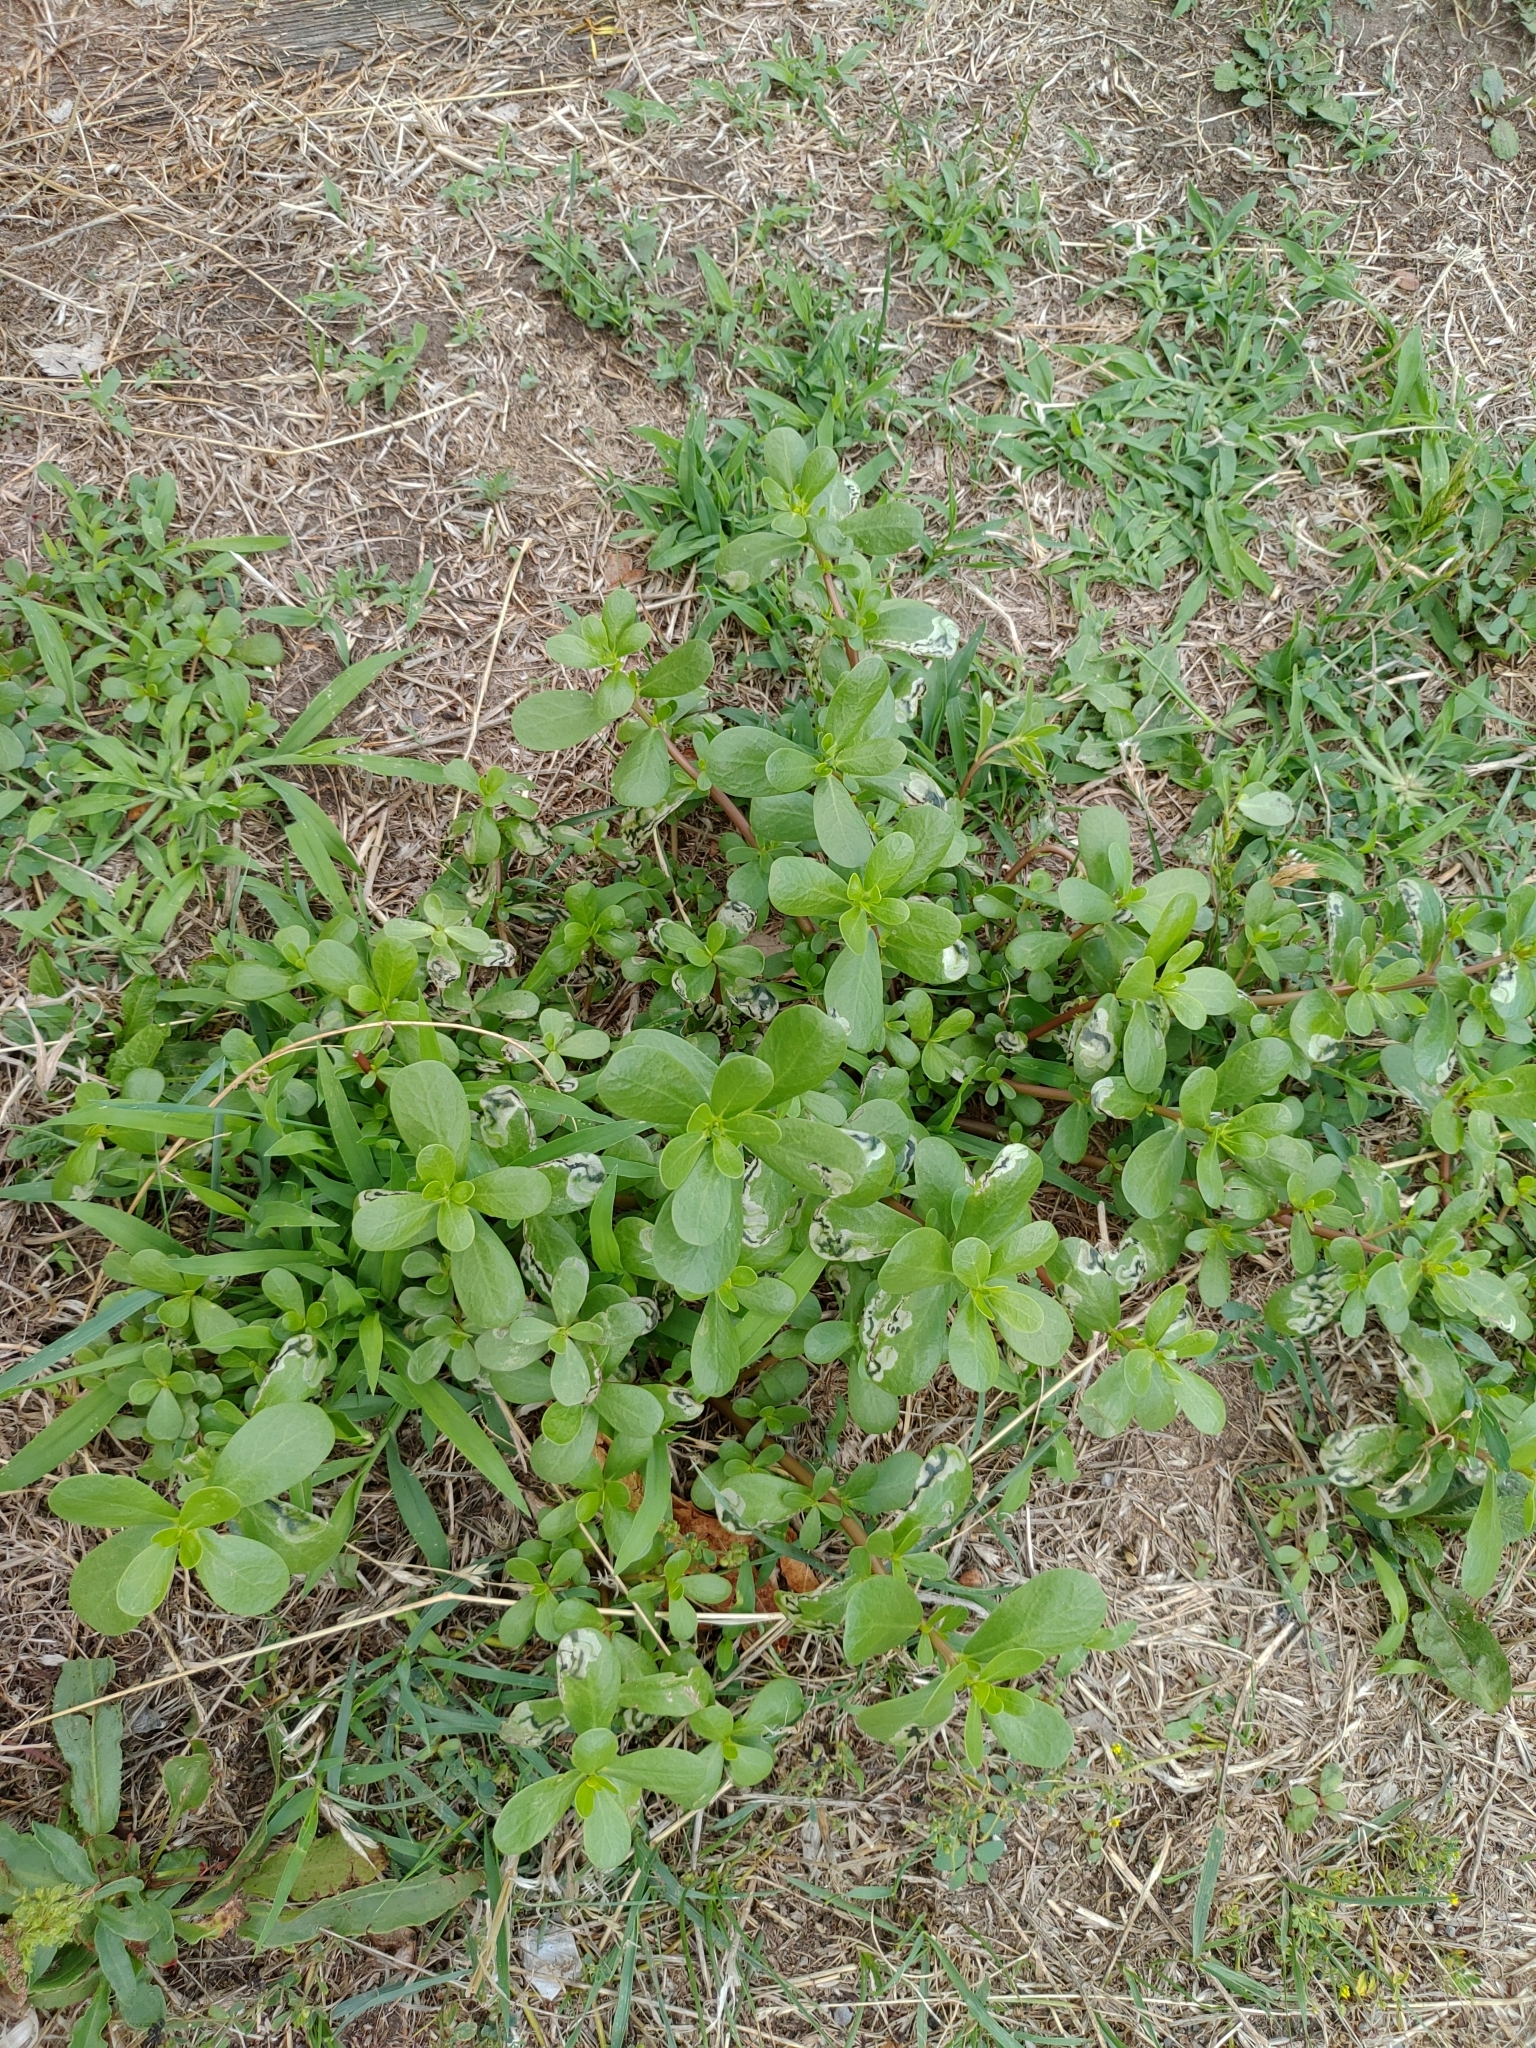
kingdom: Plantae
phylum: Tracheophyta
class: Magnoliopsida
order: Caryophyllales
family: Portulacaceae
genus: Portulaca
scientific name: Portulaca oleracea
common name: Common purslane
